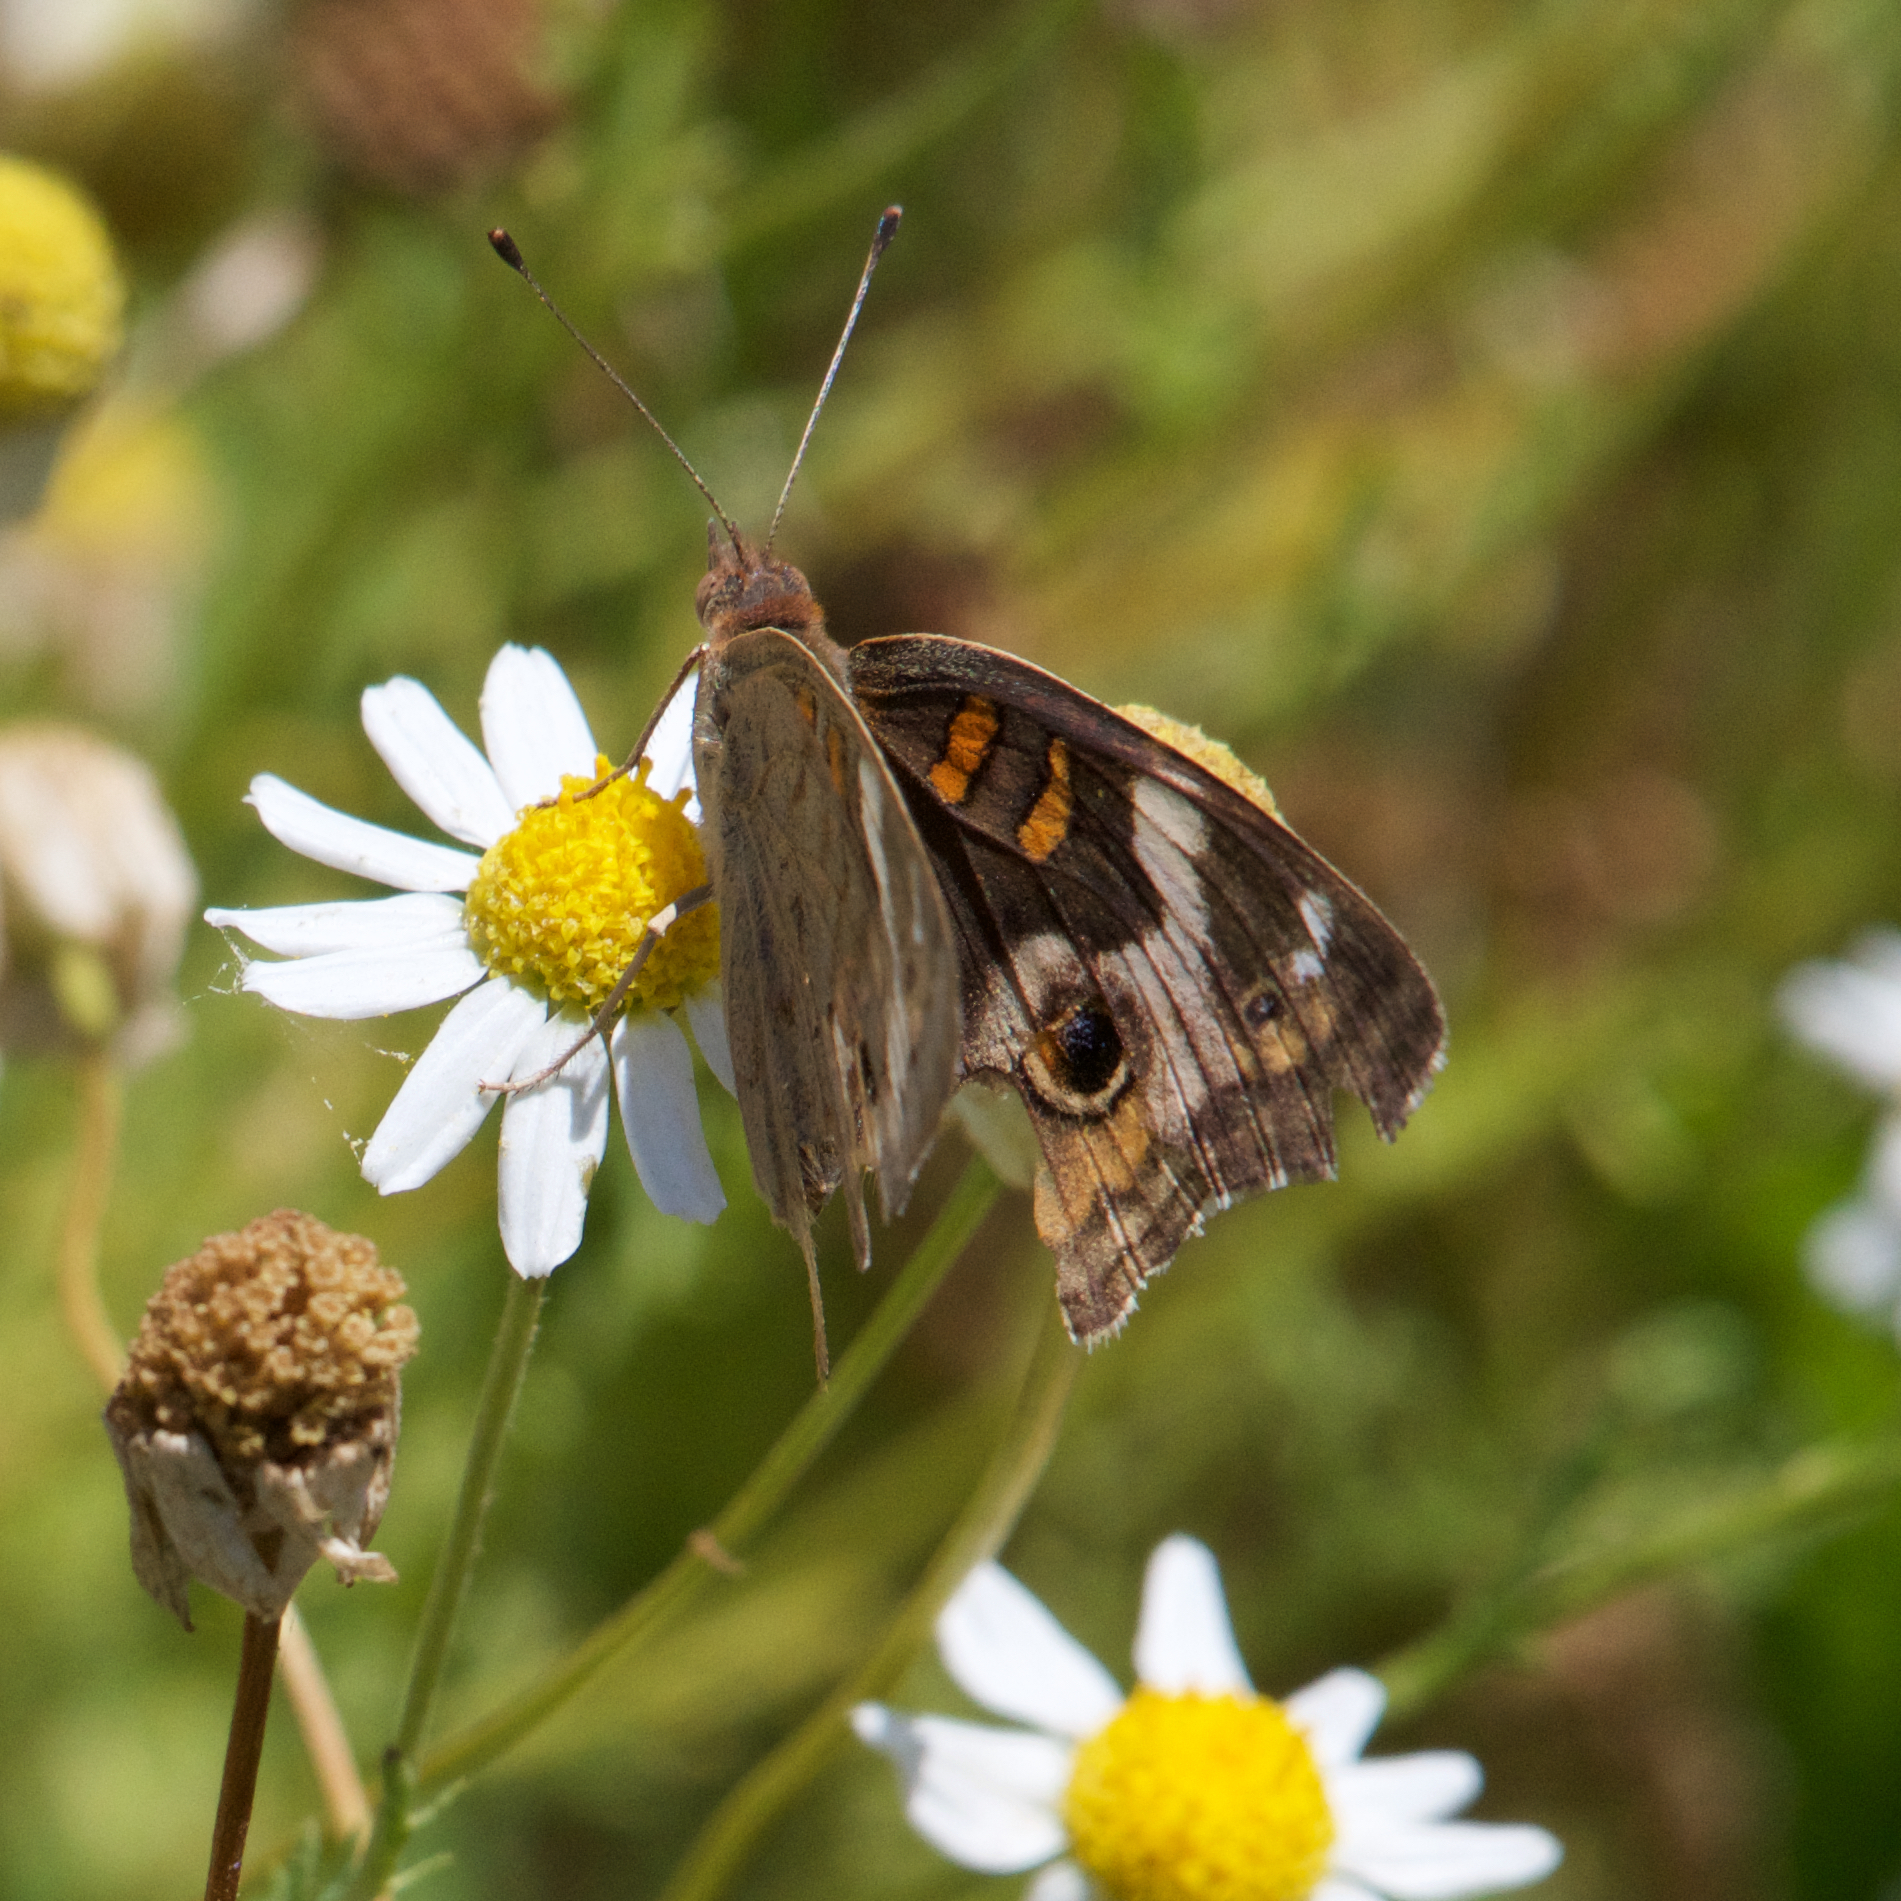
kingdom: Animalia
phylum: Arthropoda
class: Insecta
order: Lepidoptera
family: Nymphalidae
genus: Junonia
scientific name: Junonia grisea
